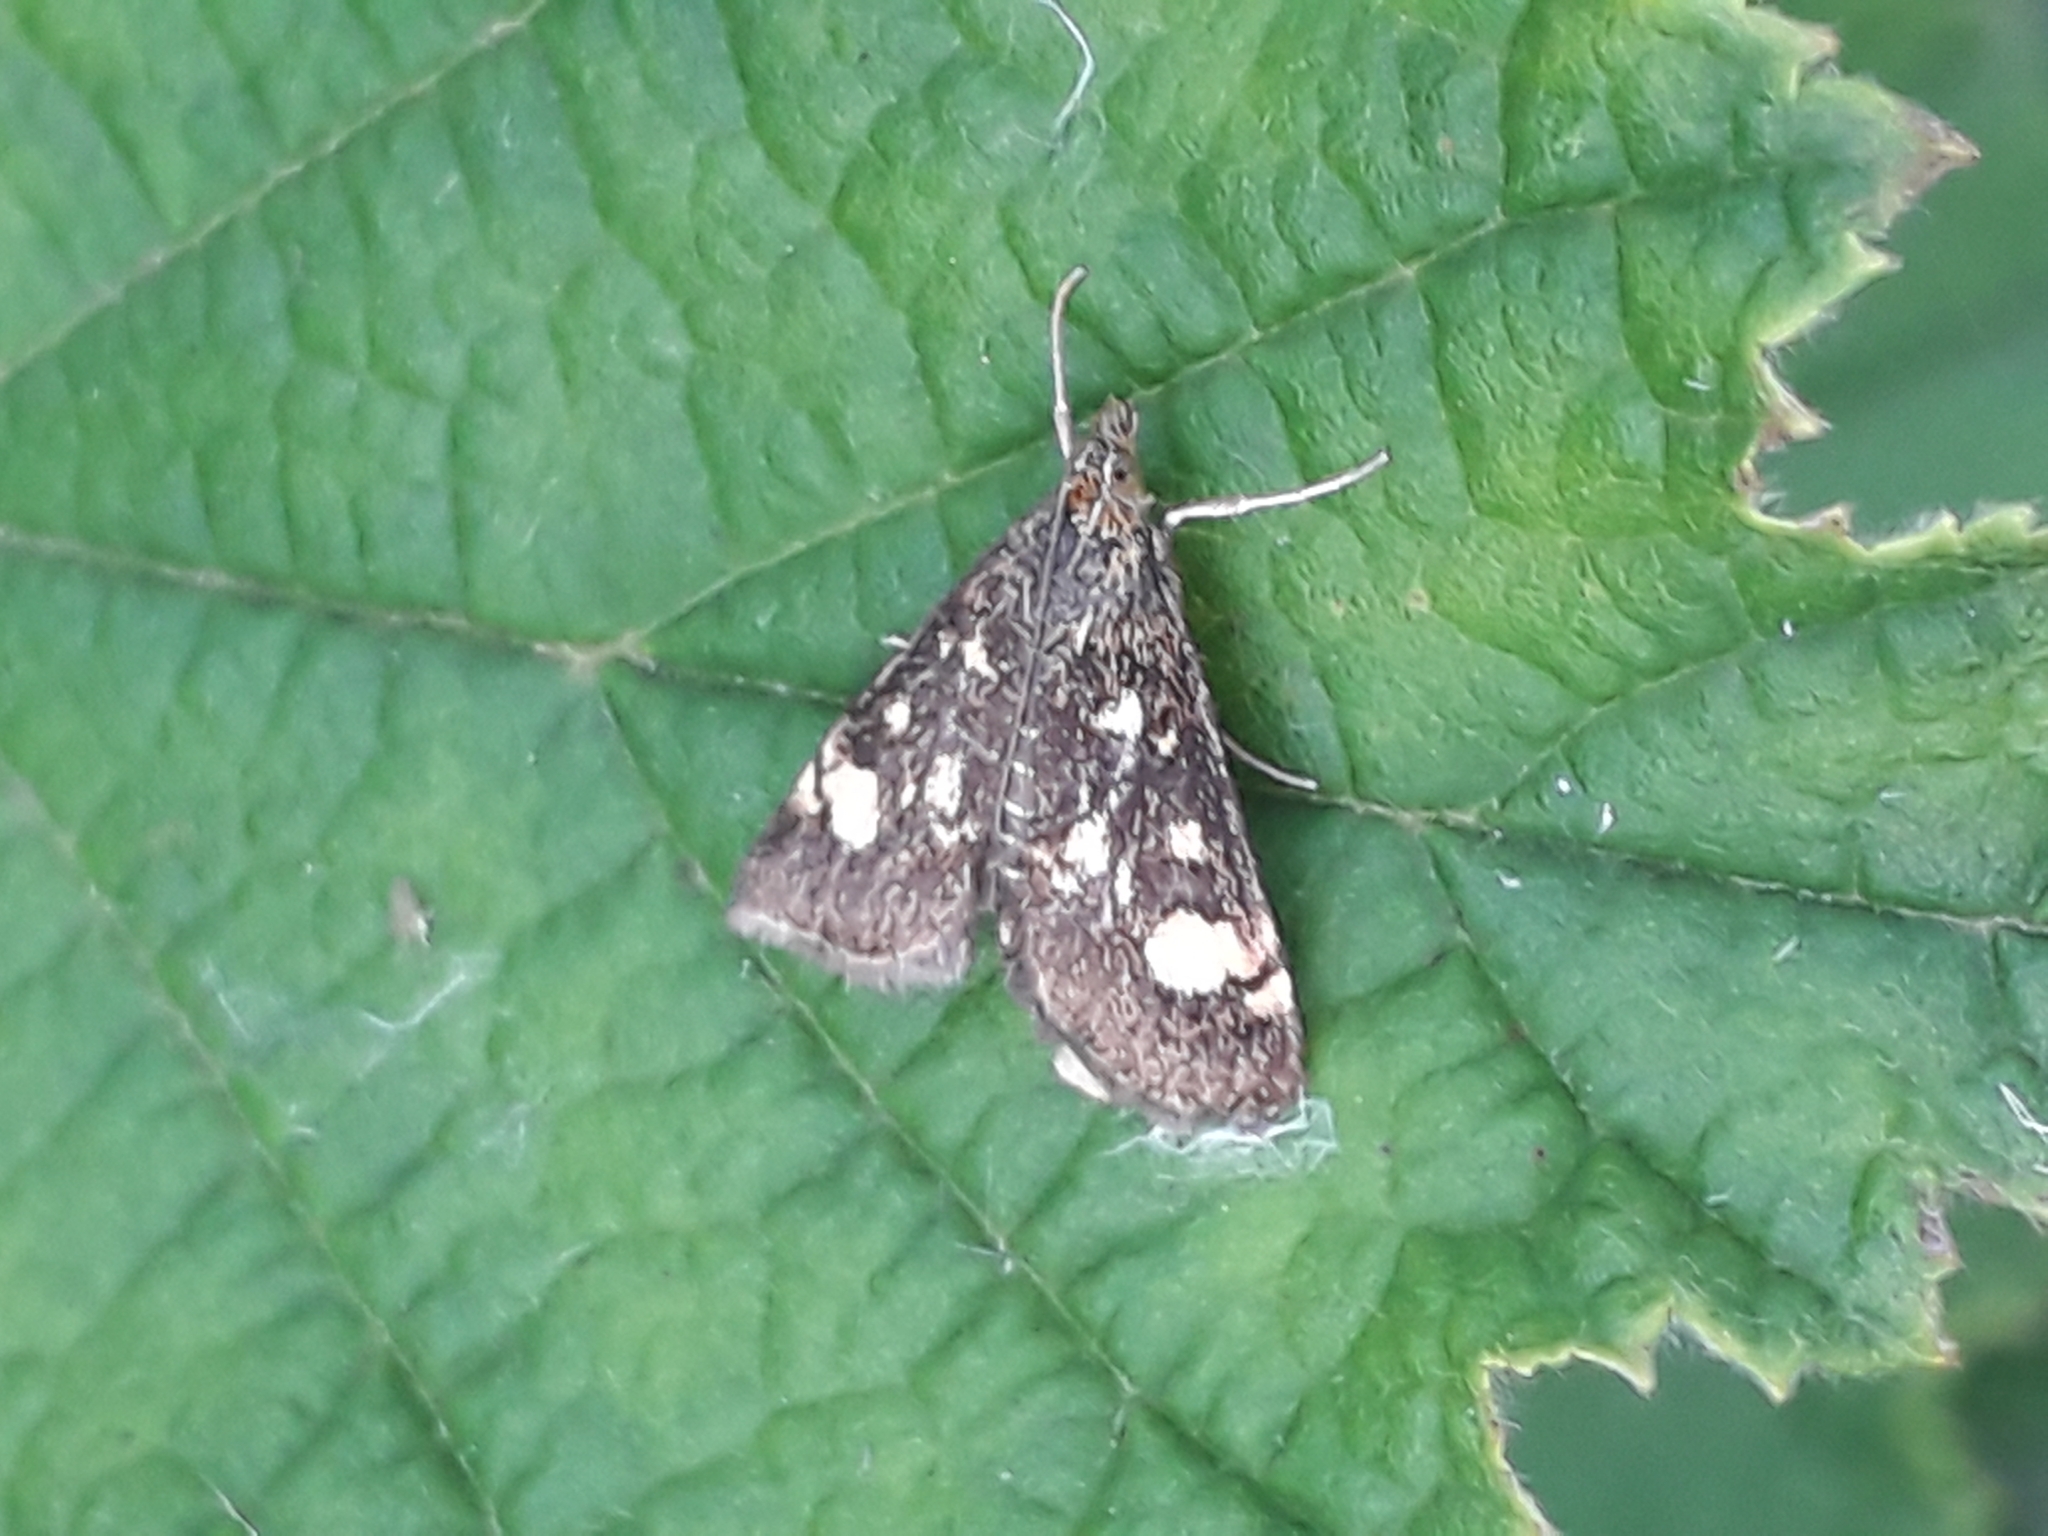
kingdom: Animalia
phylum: Arthropoda
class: Insecta
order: Lepidoptera
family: Crambidae
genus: Pyrausta
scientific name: Pyrausta aurata
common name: Small purple & gold
